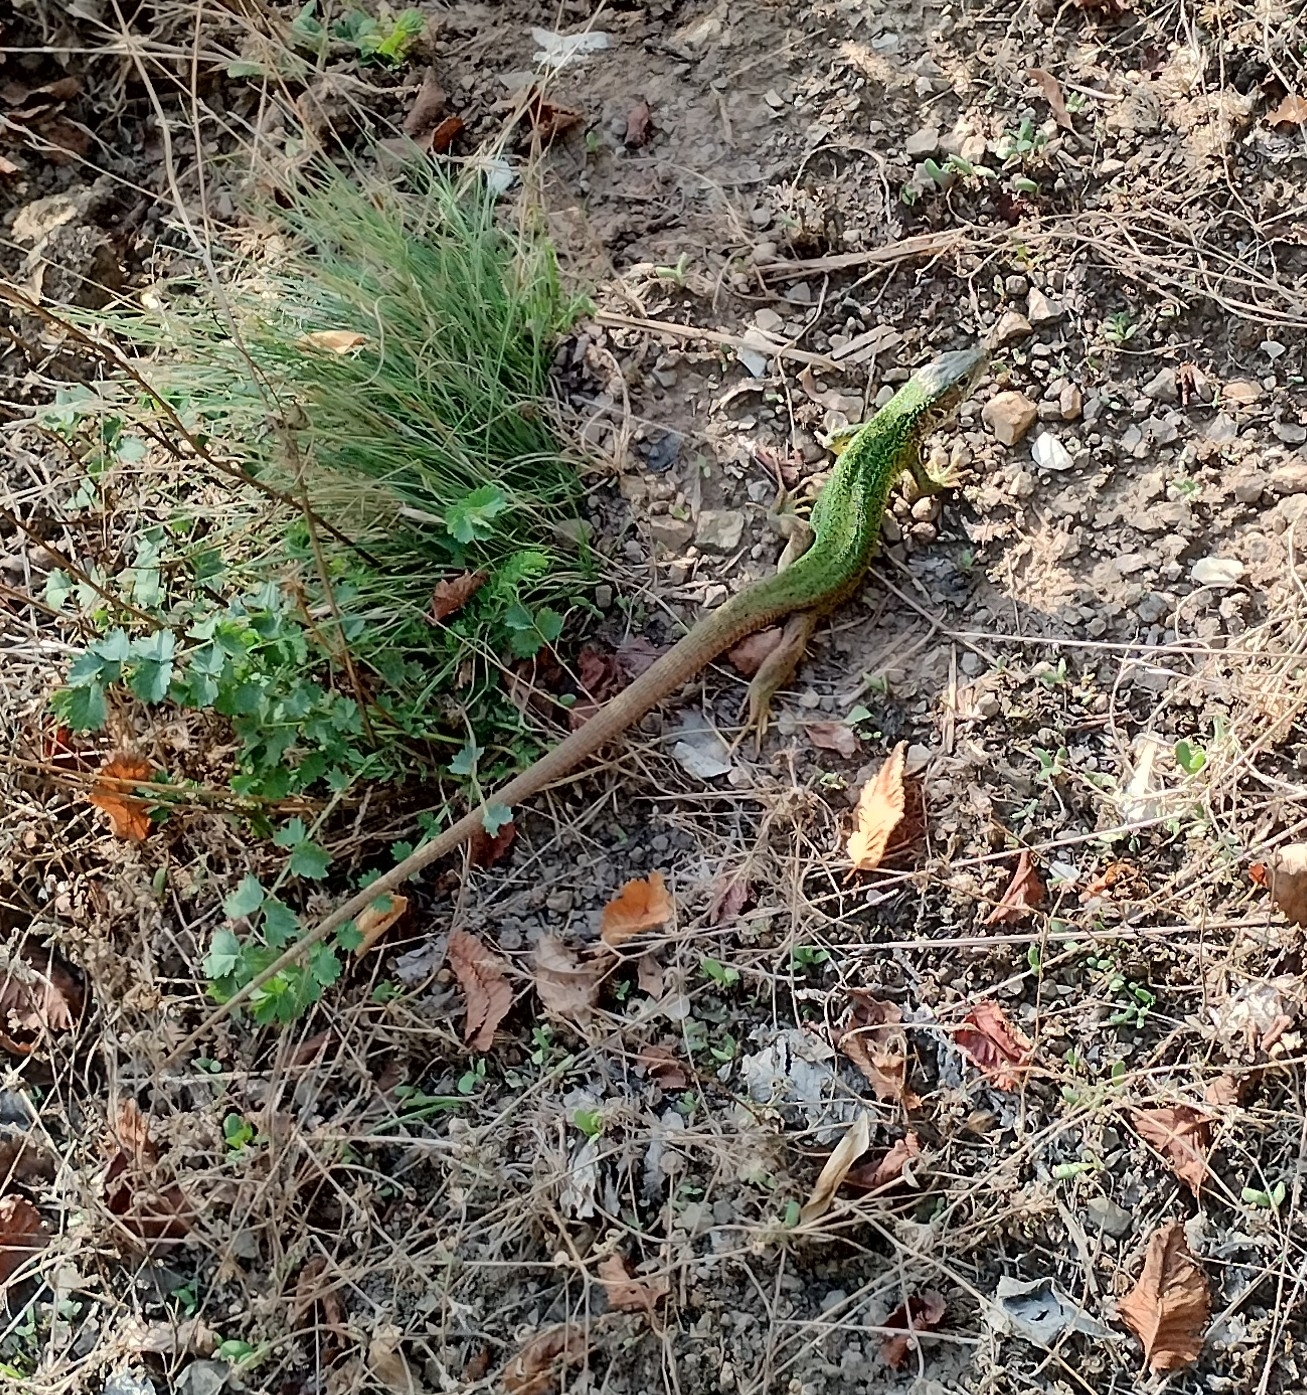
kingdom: Animalia
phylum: Chordata
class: Squamata
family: Lacertidae
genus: Lacerta
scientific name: Lacerta viridis
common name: European green lizard
